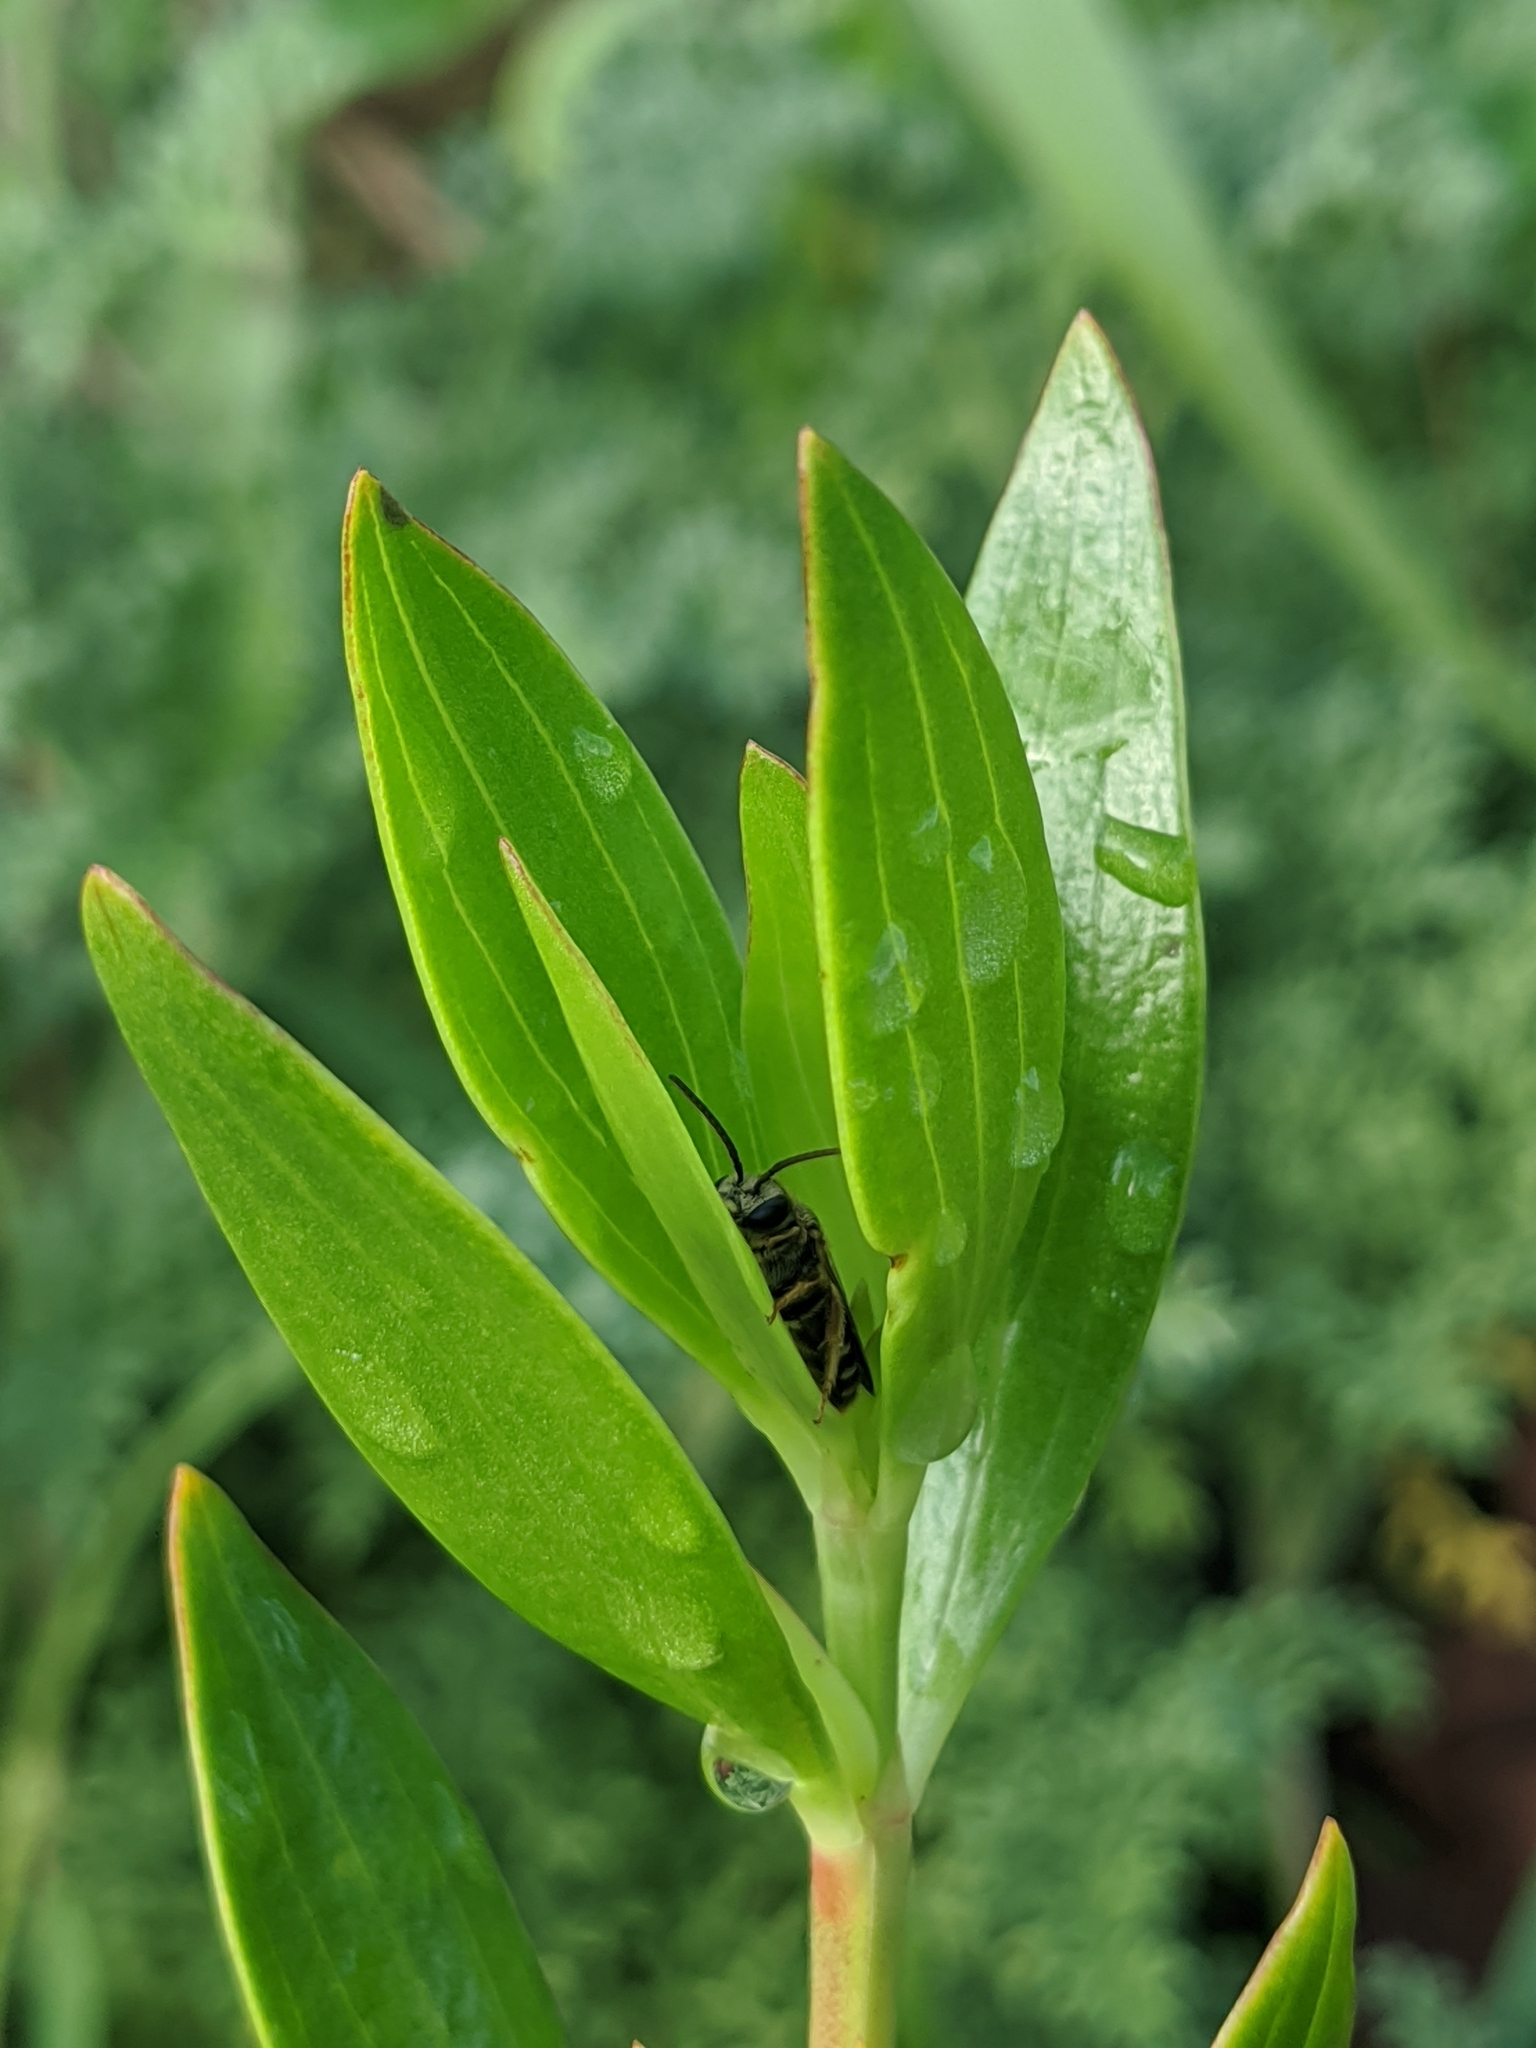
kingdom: Plantae
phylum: Tracheophyta
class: Magnoliopsida
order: Gentianales
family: Rubiaceae
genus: Ernodea
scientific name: Ernodea littoralis
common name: Beach creeper
